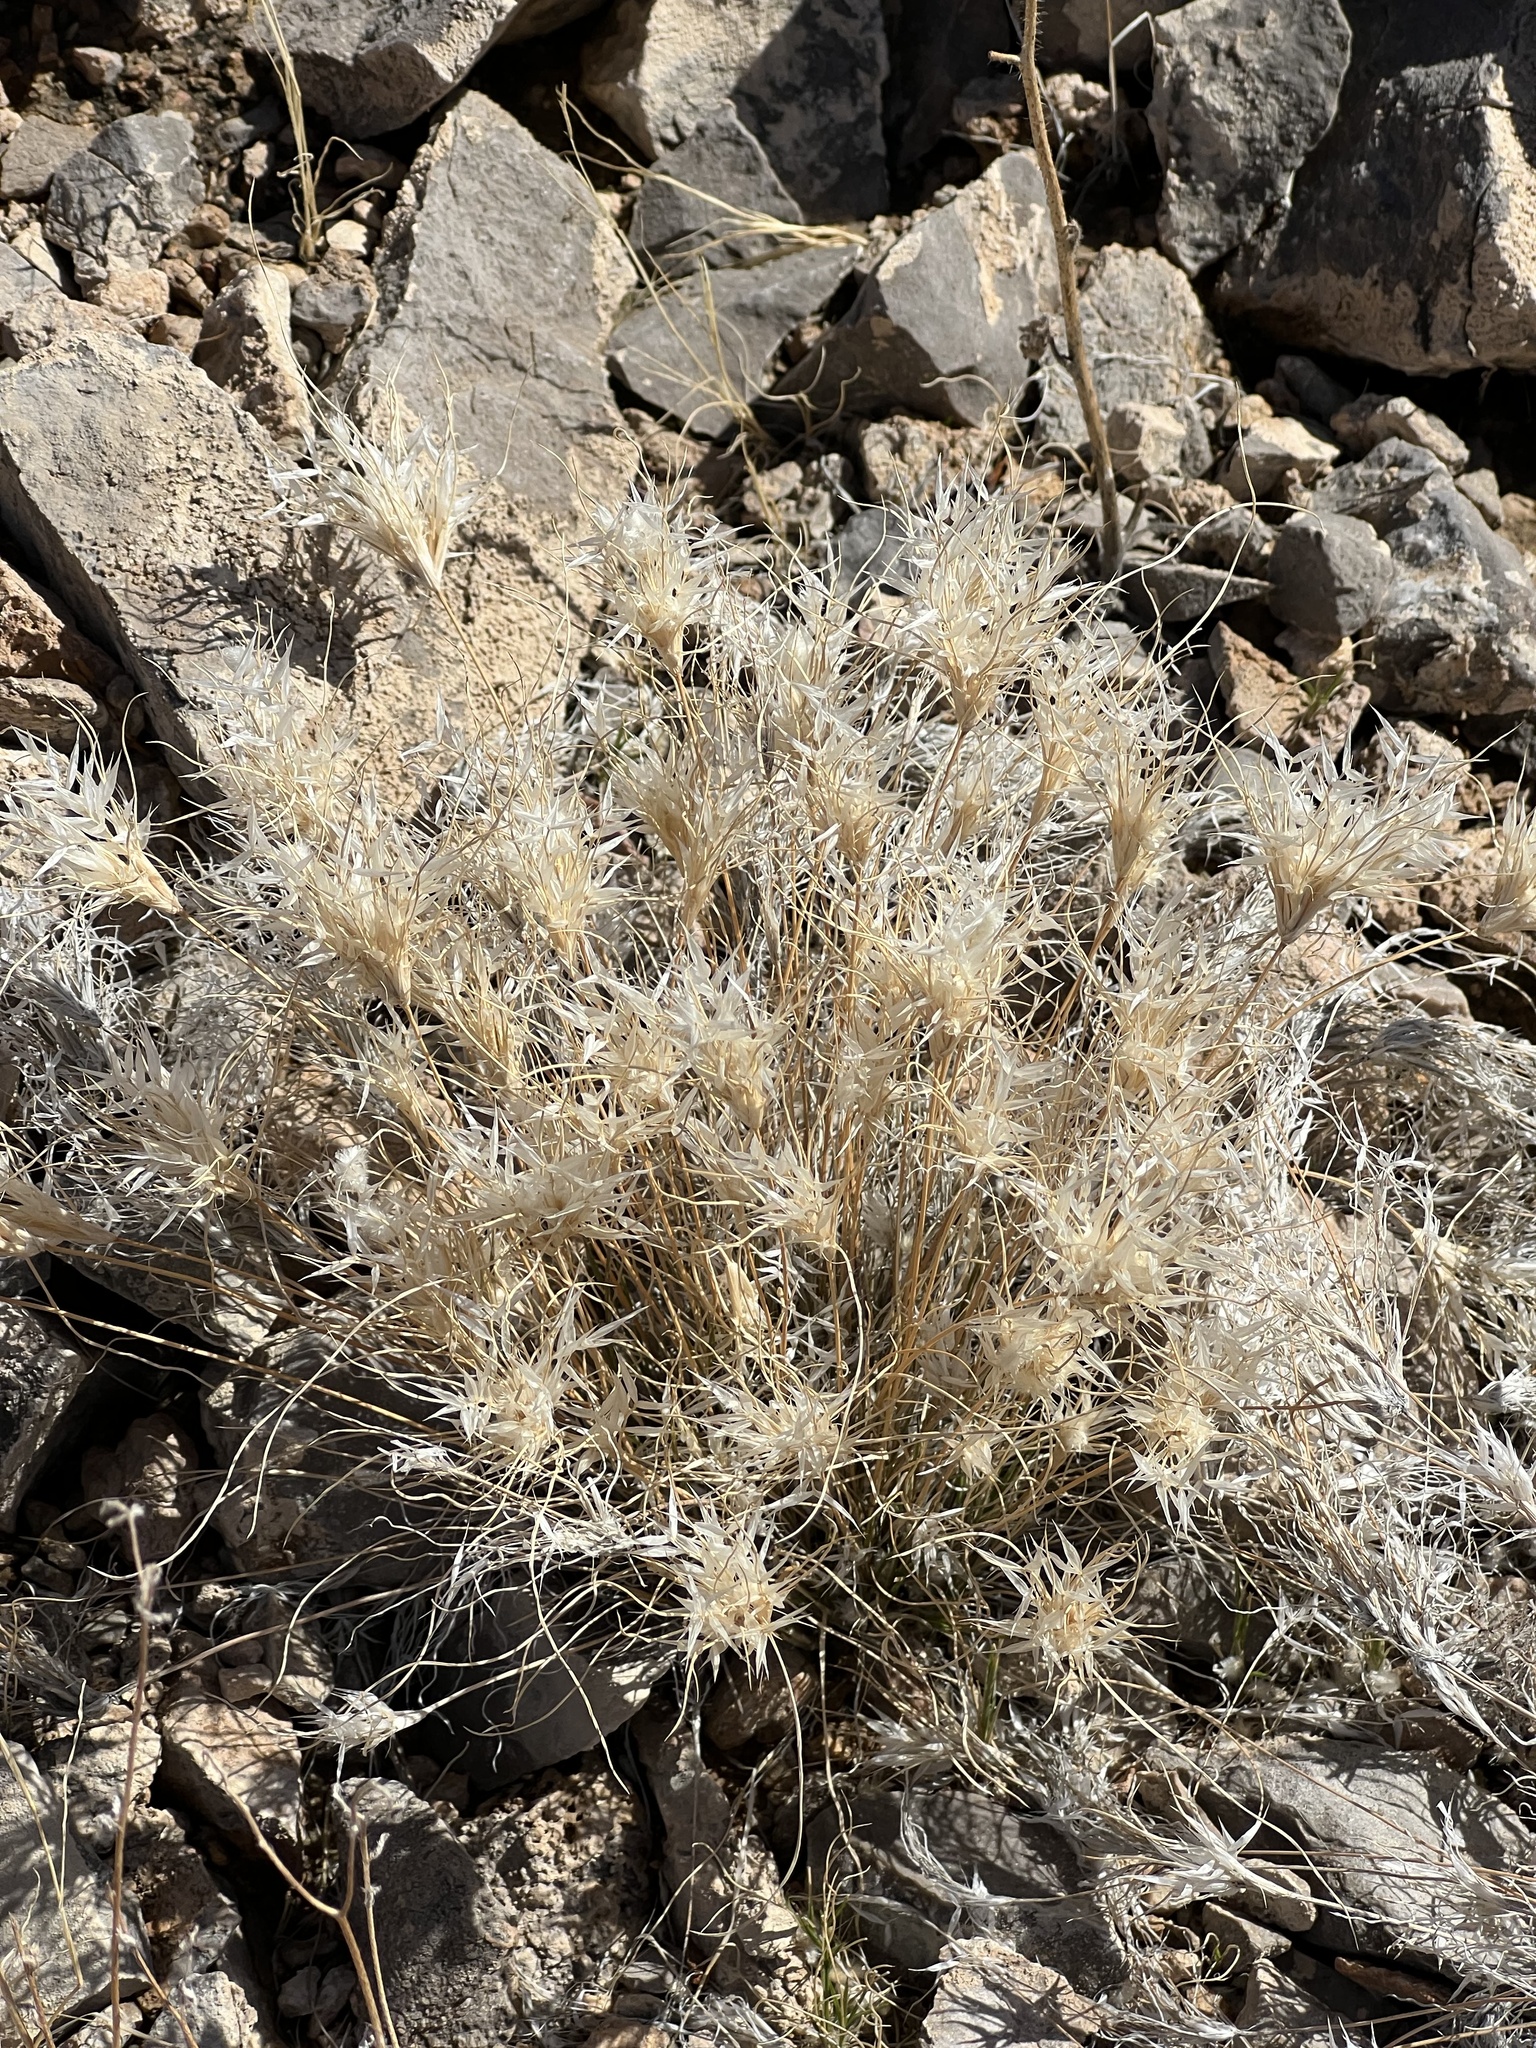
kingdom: Plantae
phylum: Tracheophyta
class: Liliopsida
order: Poales
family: Poaceae
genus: Dasyochloa
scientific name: Dasyochloa pulchella
